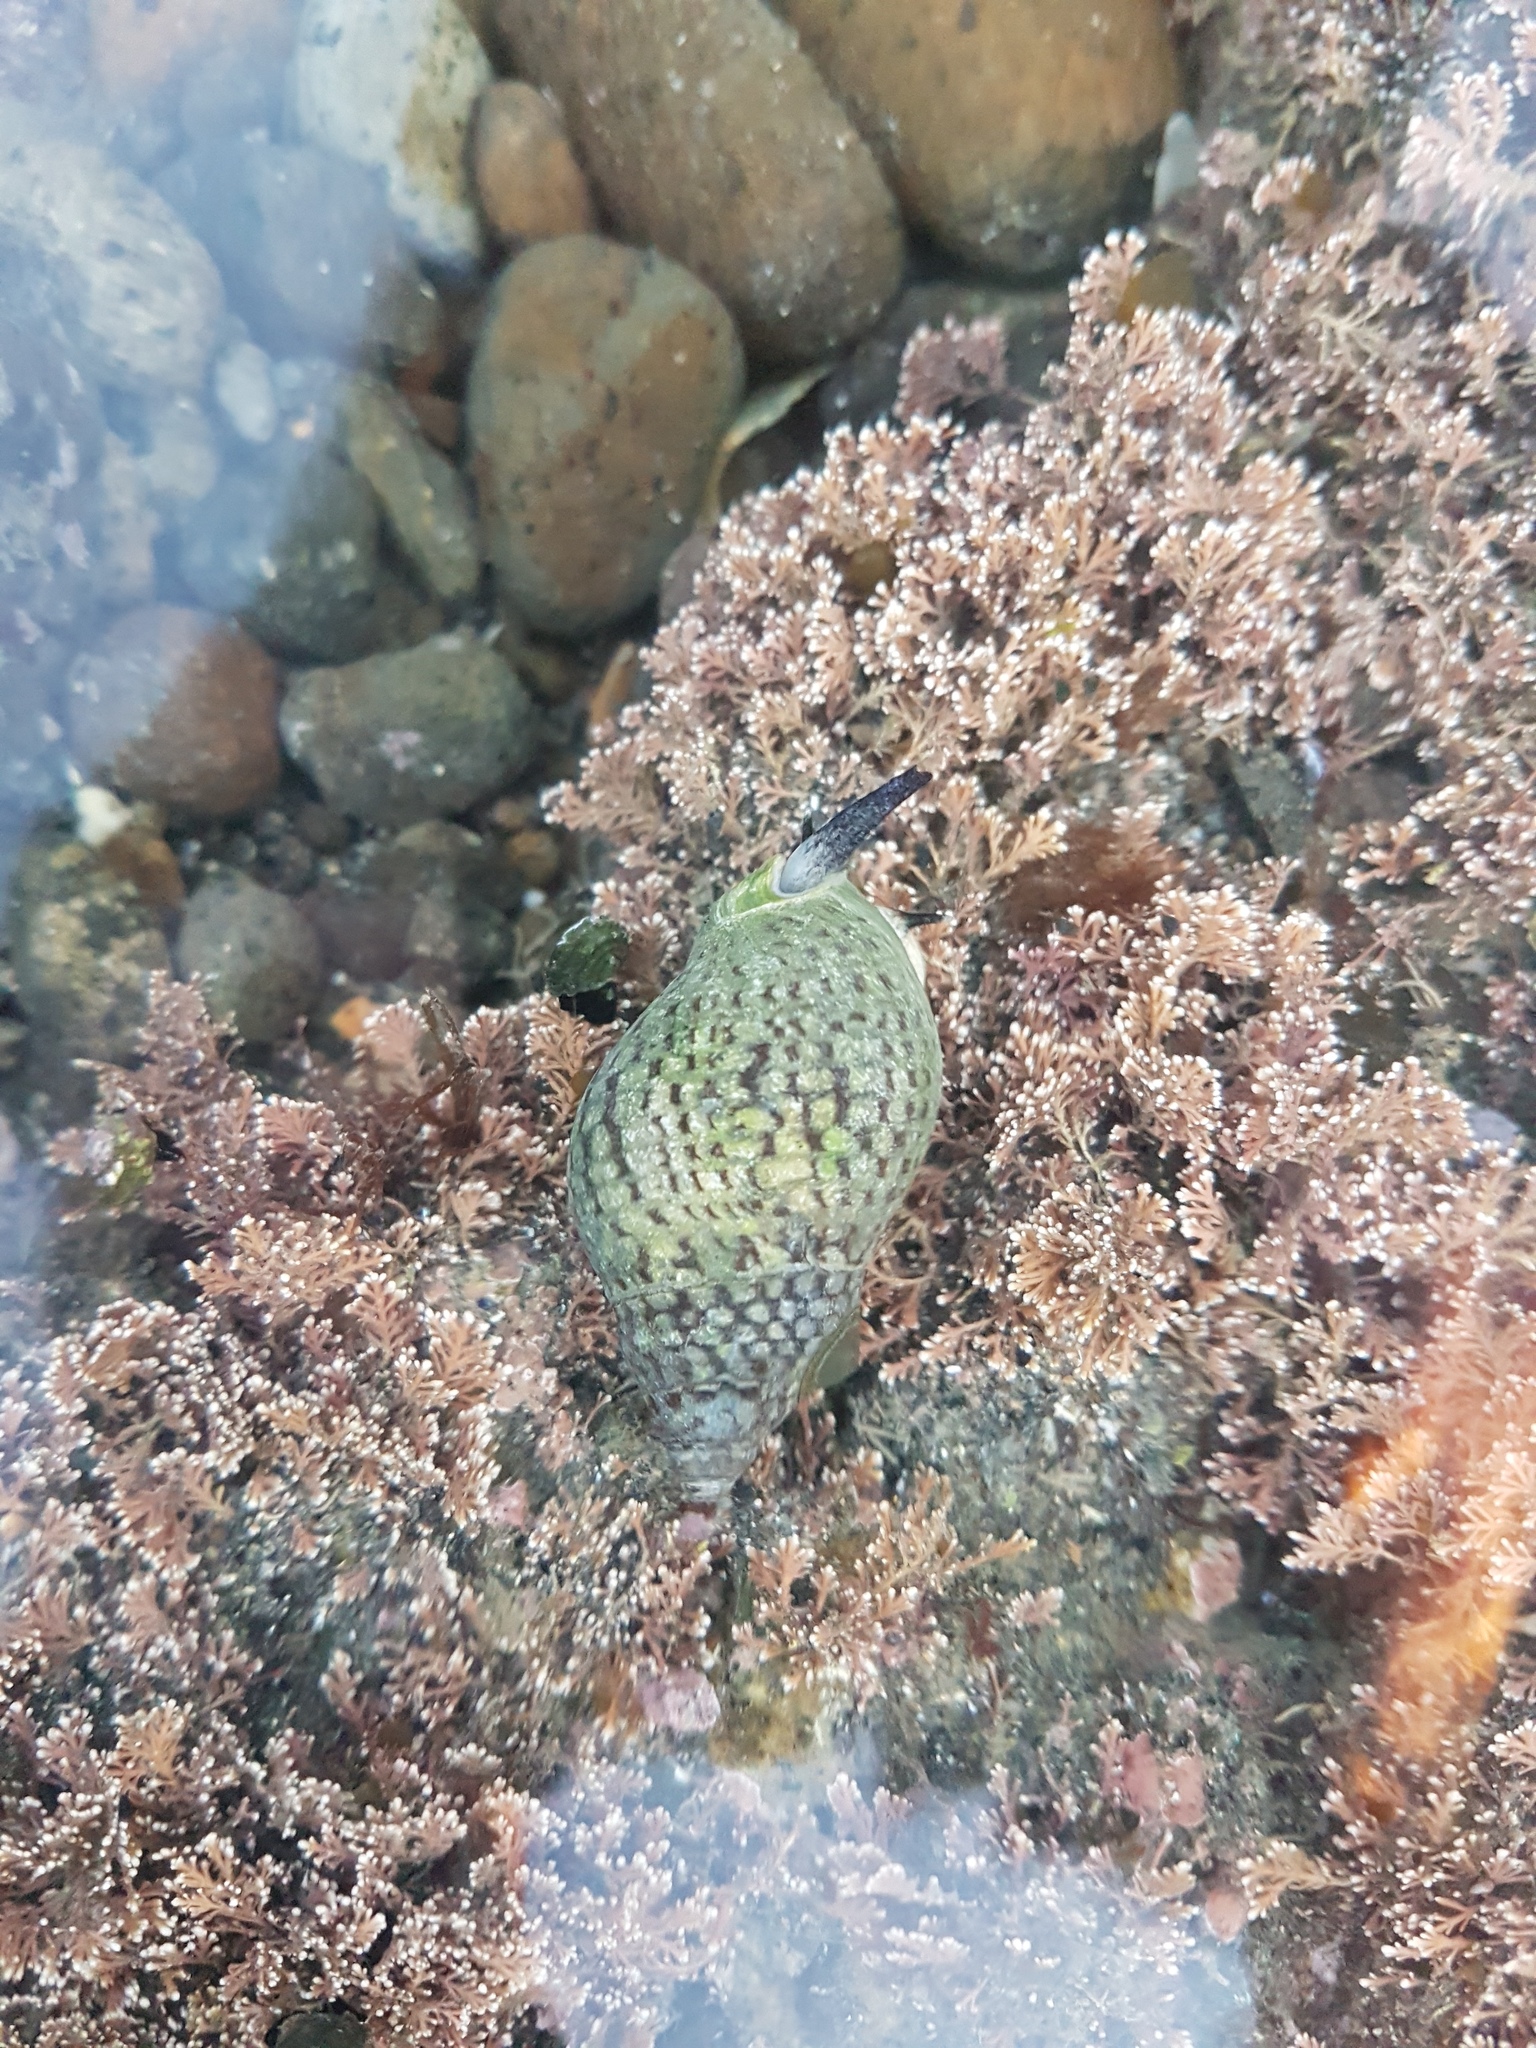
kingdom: Animalia
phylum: Mollusca
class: Gastropoda
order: Neogastropoda
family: Cominellidae
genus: Cominella
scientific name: Cominella maculosa
